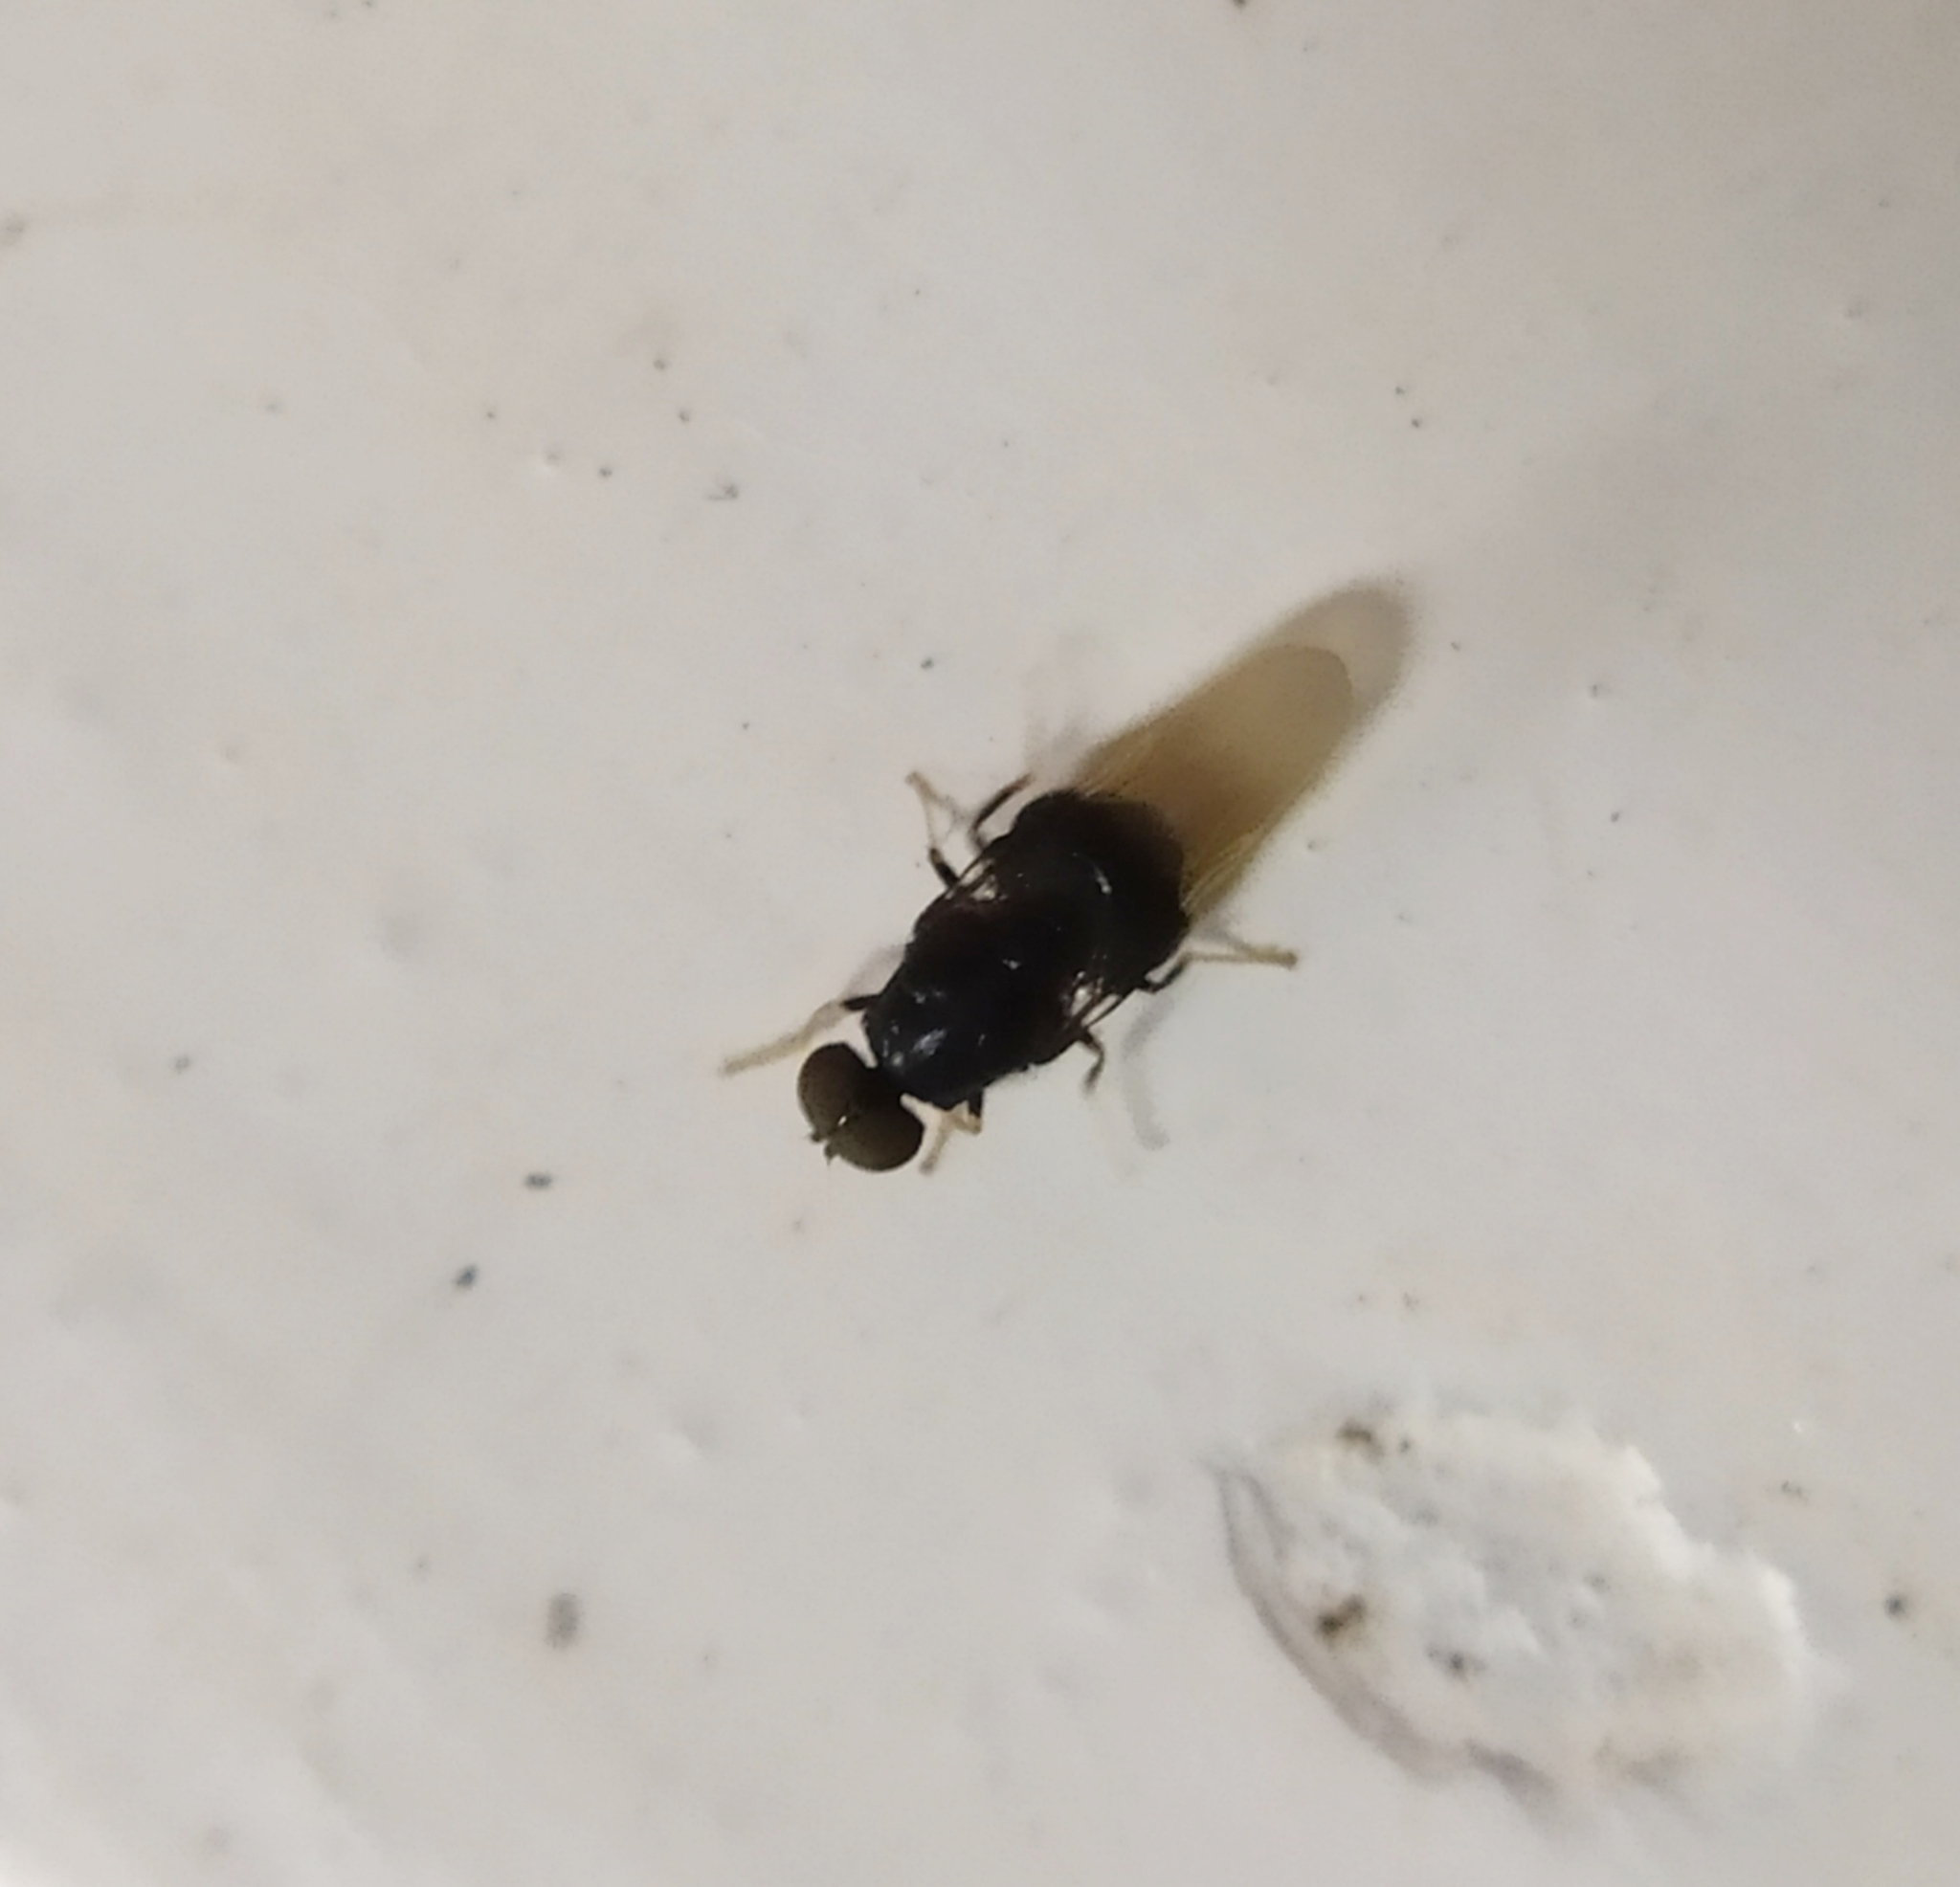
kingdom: Animalia
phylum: Arthropoda
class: Insecta
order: Diptera
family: Stratiomyidae
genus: Eupachygaster
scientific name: Eupachygaster tarsalis
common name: Scarce black
